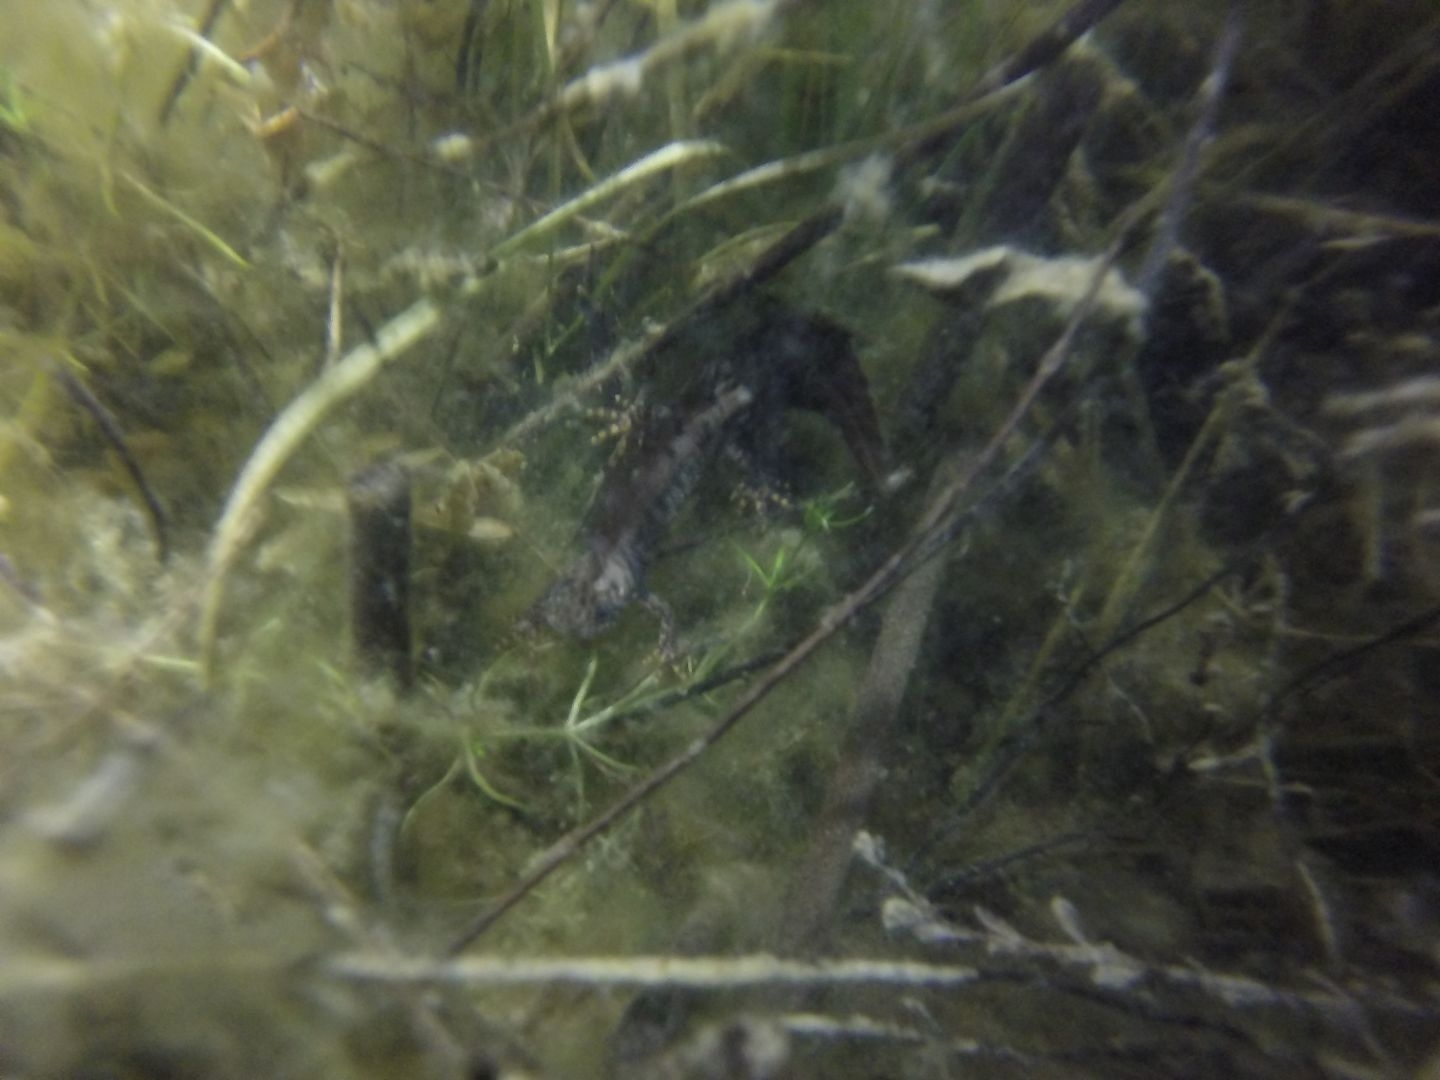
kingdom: Animalia
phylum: Chordata
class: Amphibia
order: Caudata
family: Salamandridae
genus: Triturus
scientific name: Triturus cristatus
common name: Crested newt
